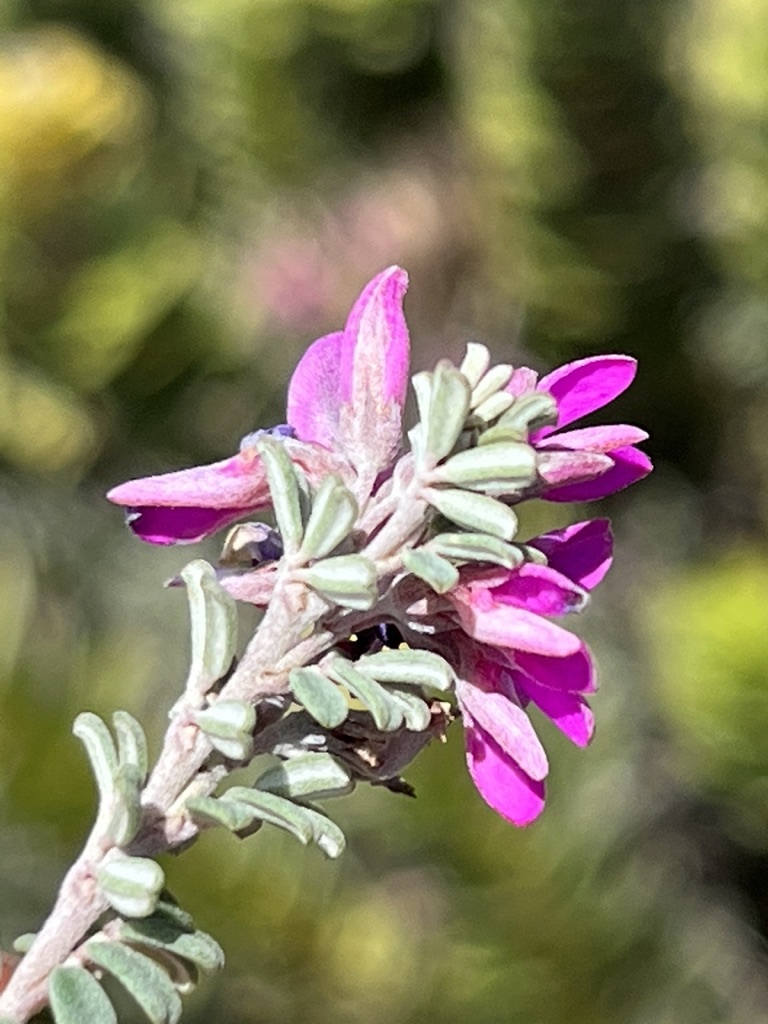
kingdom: Plantae
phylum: Tracheophyta
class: Magnoliopsida
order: Fabales
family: Fabaceae
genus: Indigofera
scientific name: Indigofera
